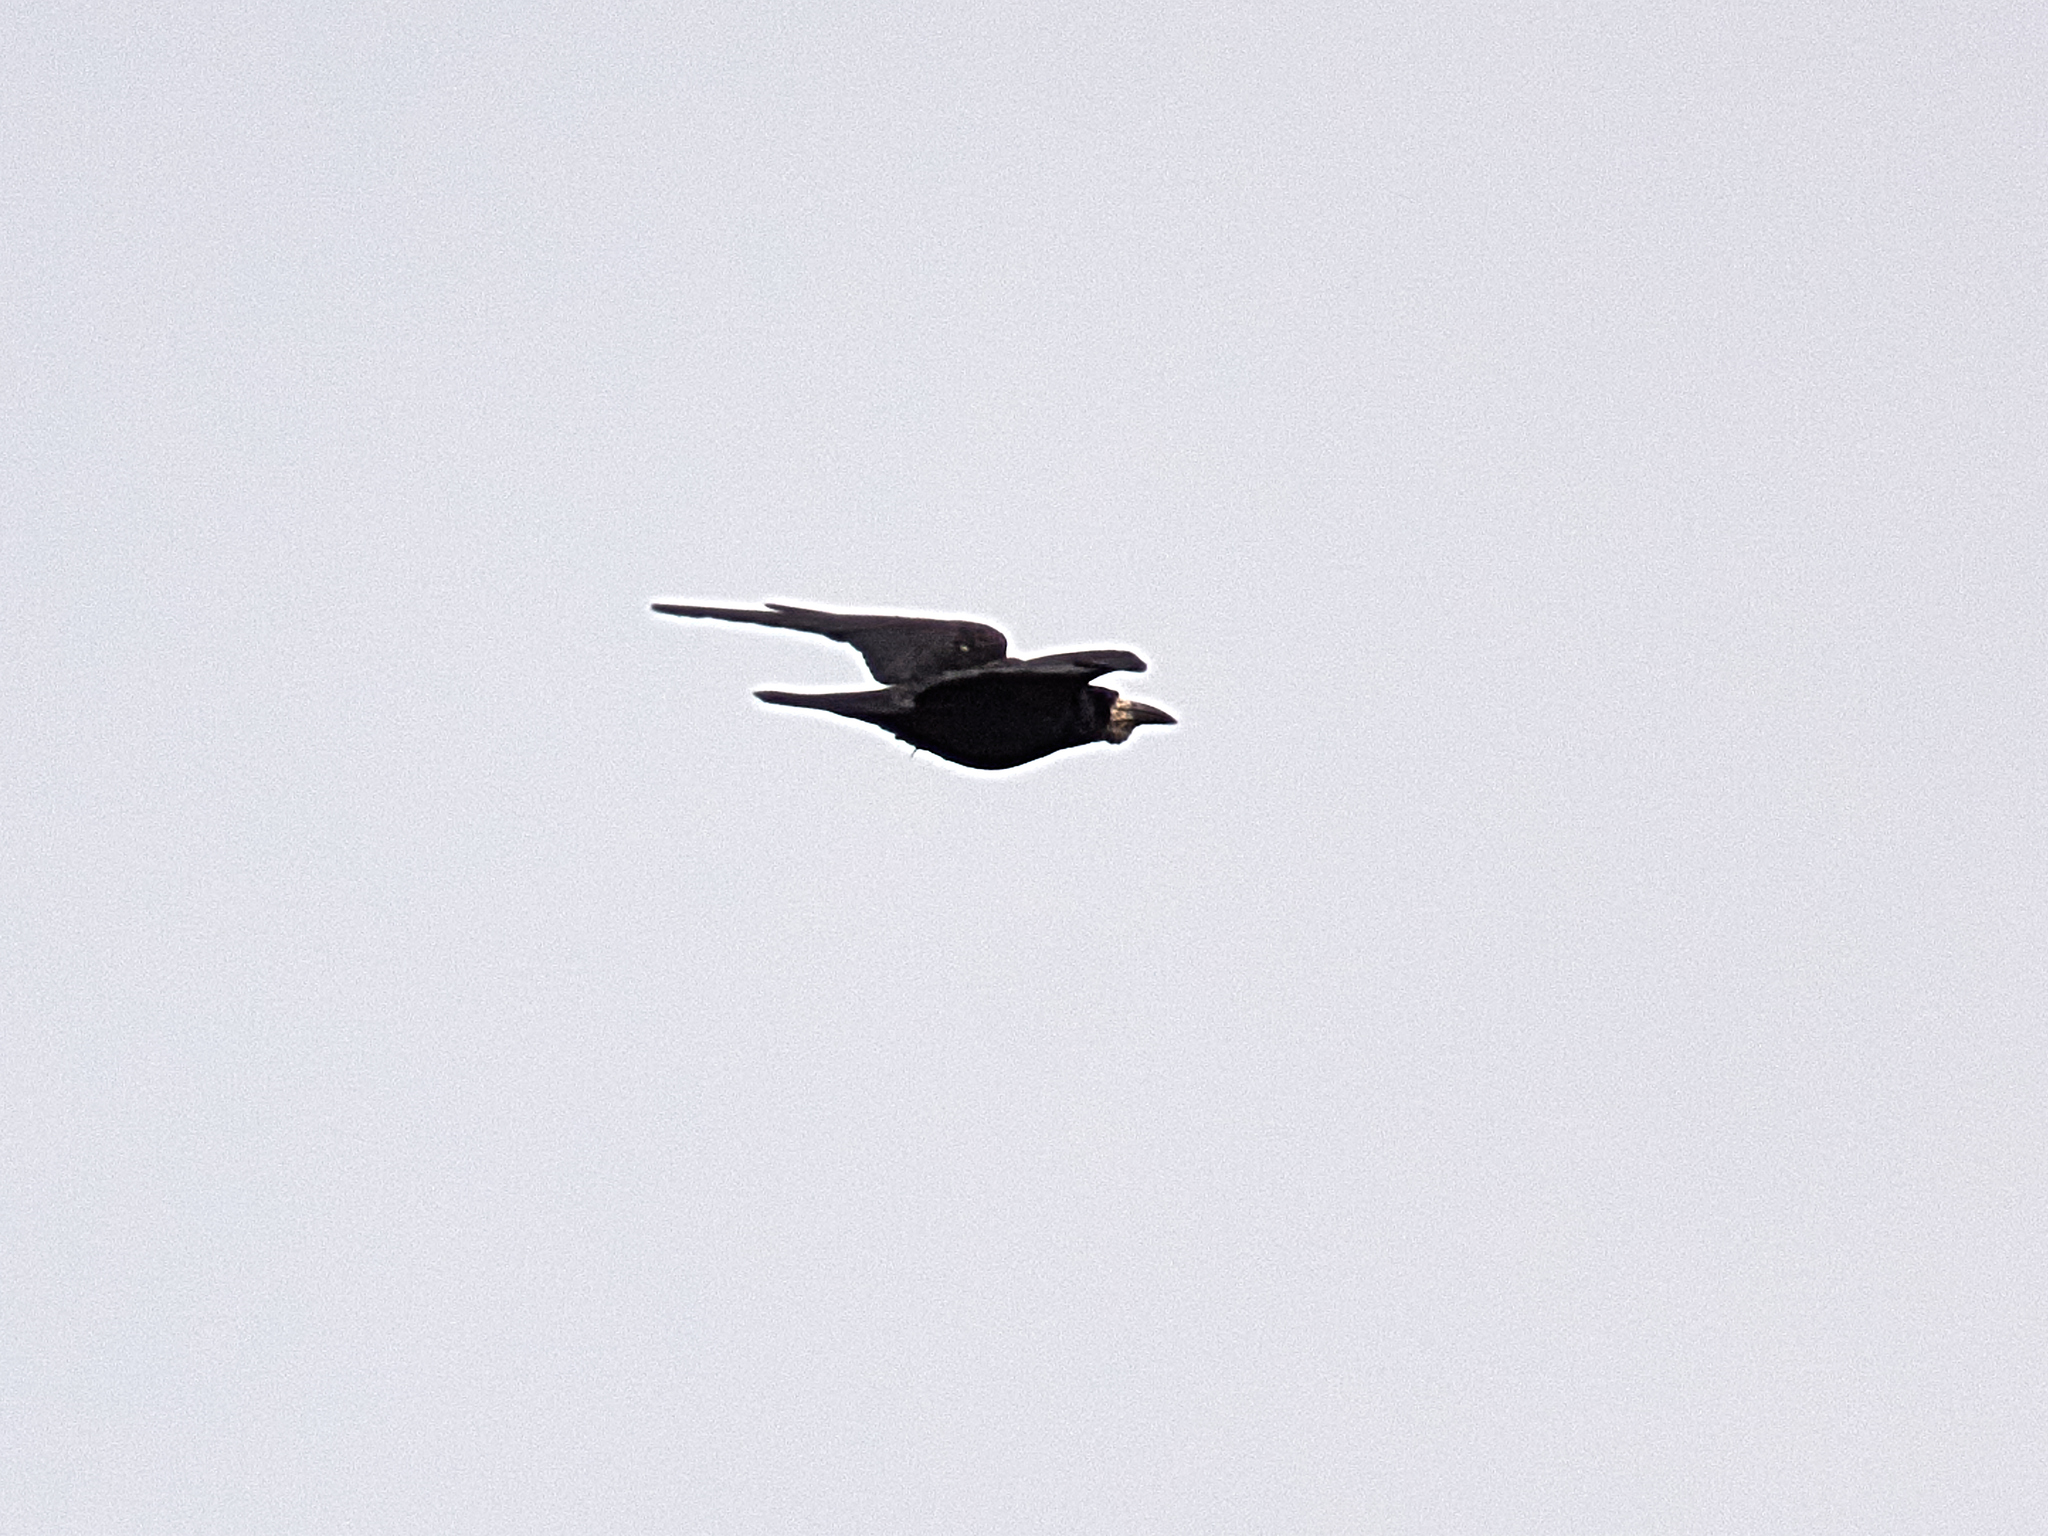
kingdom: Animalia
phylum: Chordata
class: Aves
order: Passeriformes
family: Corvidae
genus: Corvus
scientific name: Corvus frugilegus
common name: Rook
